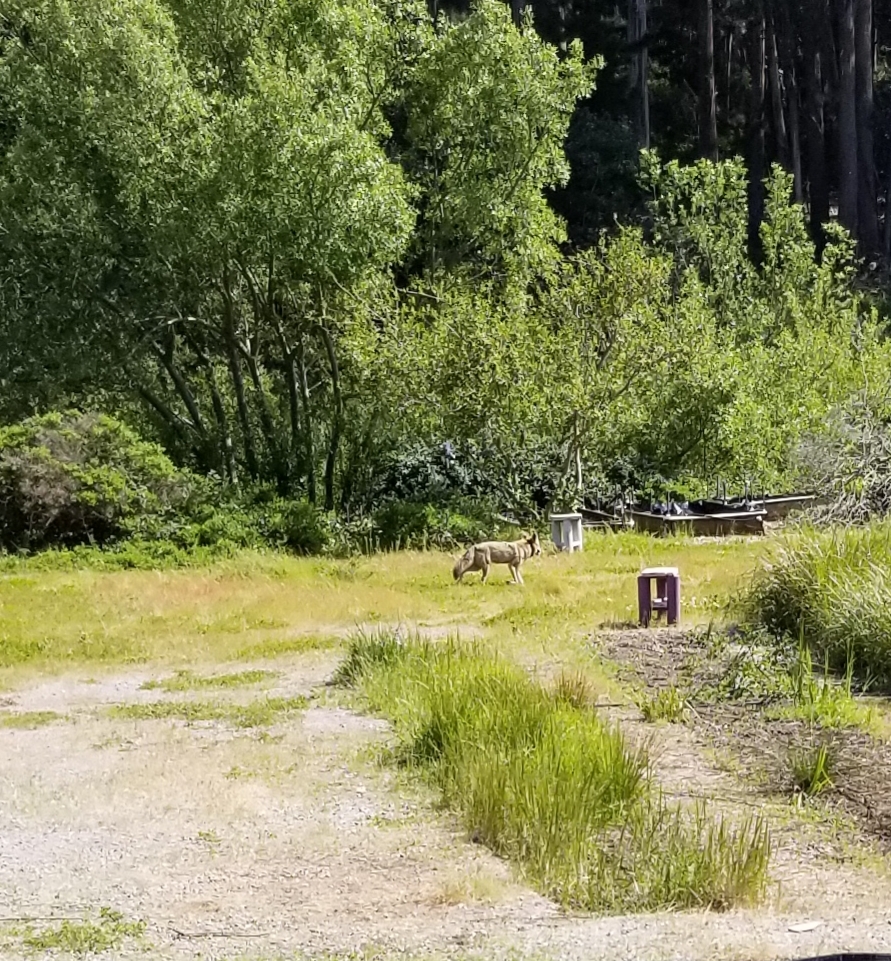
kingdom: Animalia
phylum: Chordata
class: Mammalia
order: Carnivora
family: Canidae
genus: Canis
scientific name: Canis latrans
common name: Coyote
